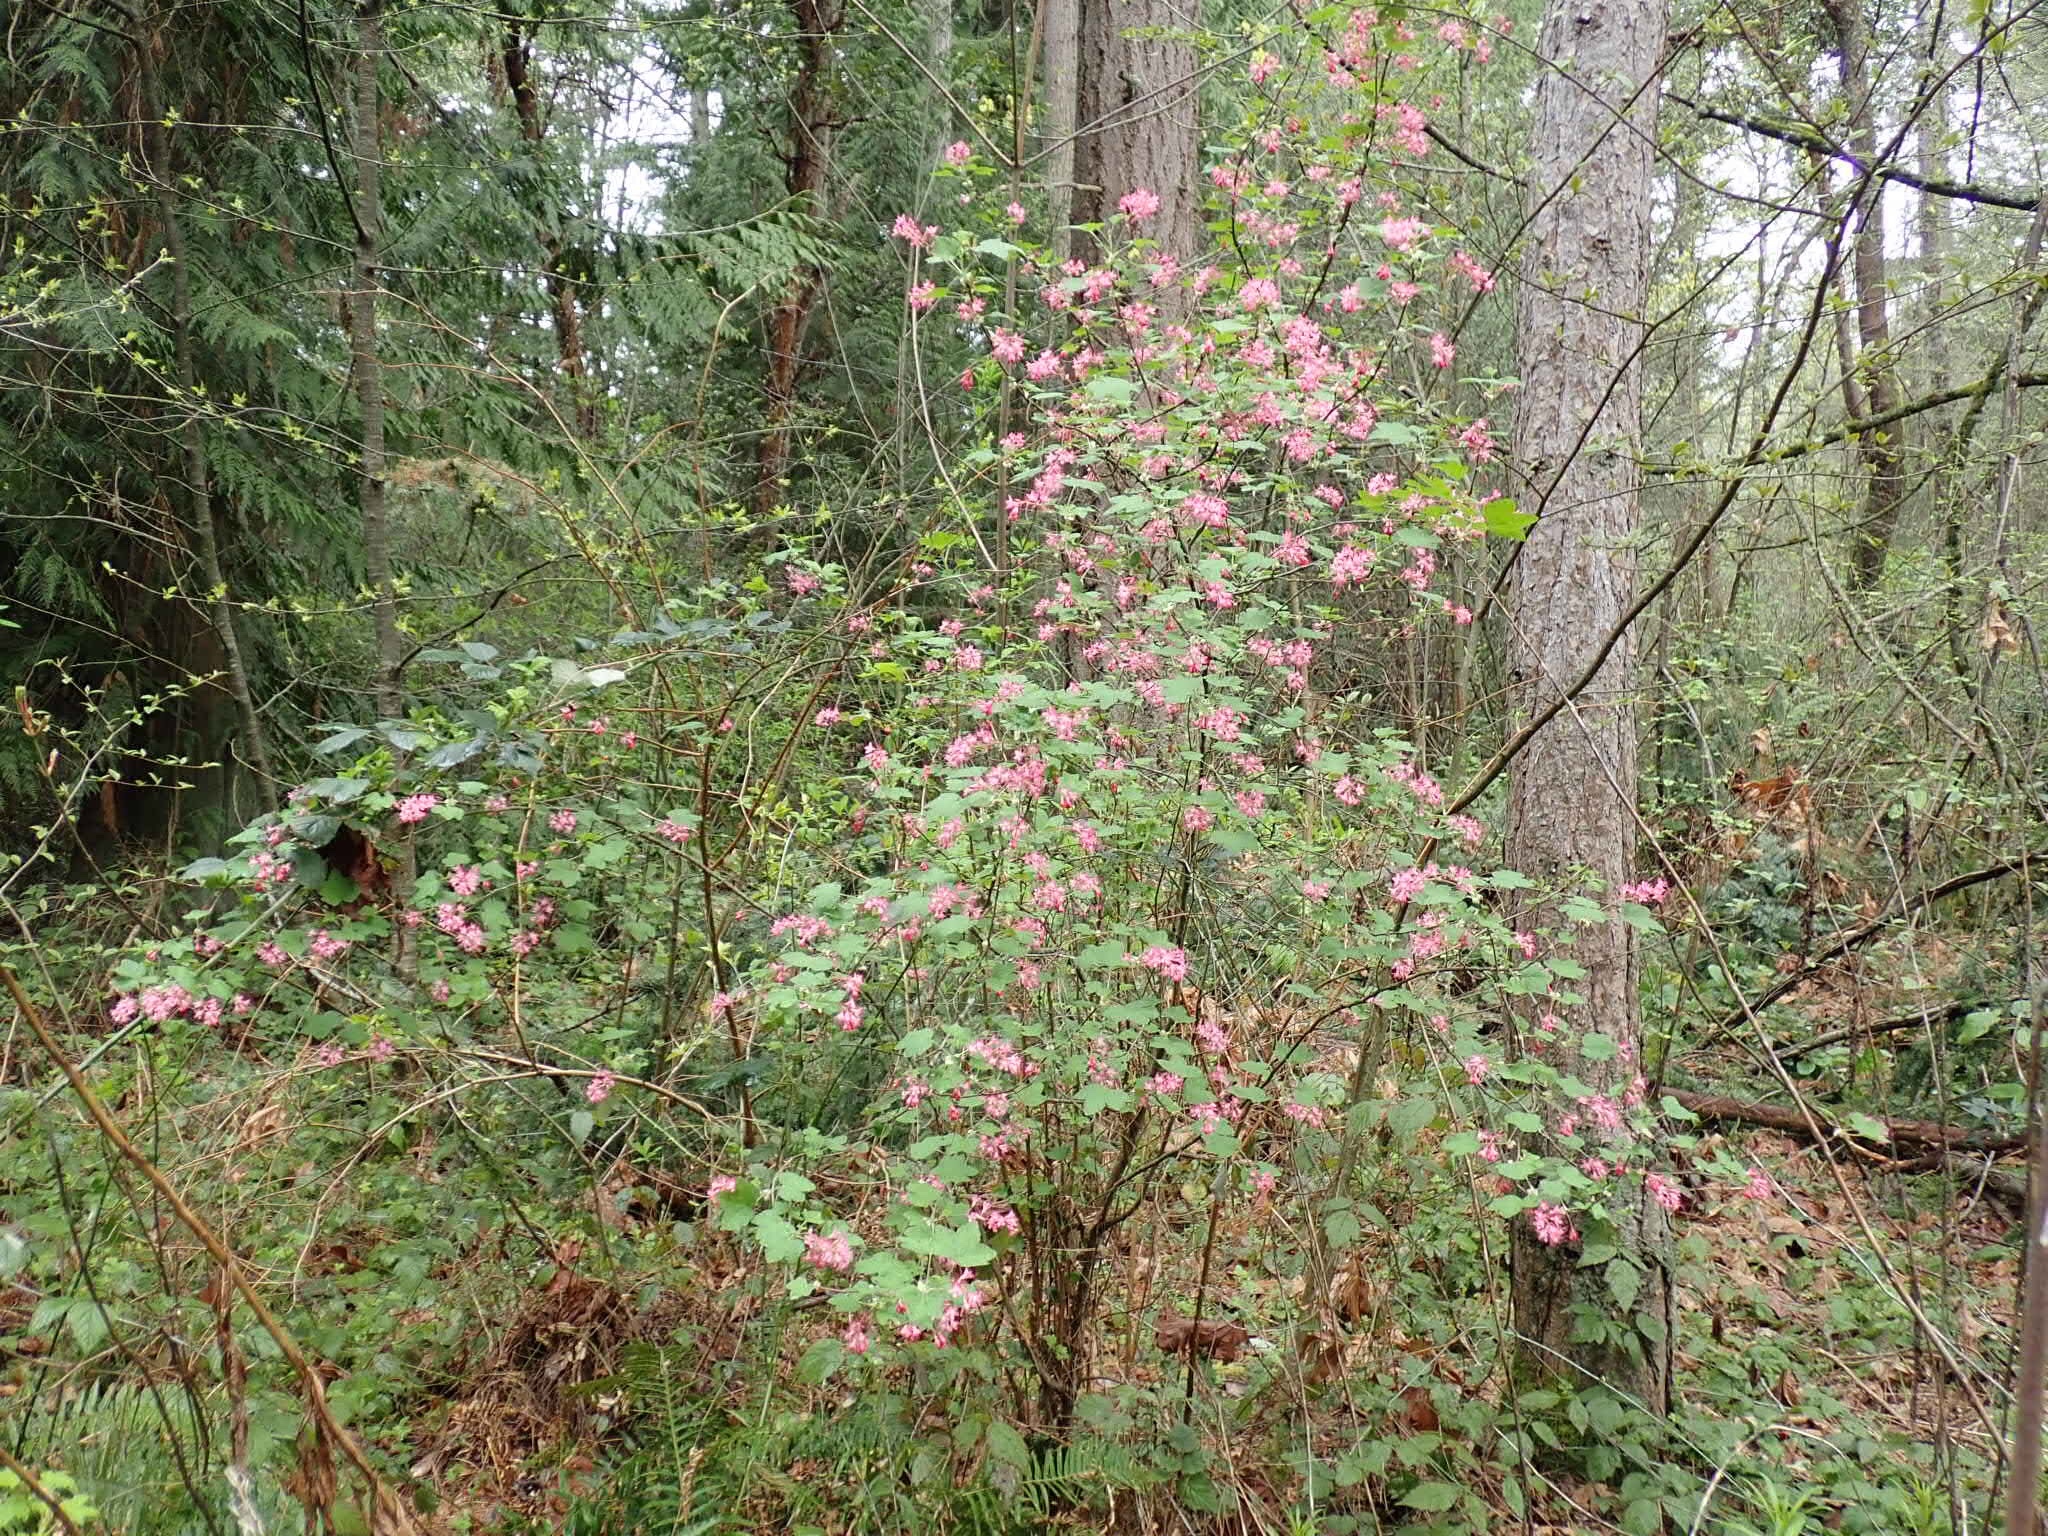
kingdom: Plantae
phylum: Tracheophyta
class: Magnoliopsida
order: Saxifragales
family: Grossulariaceae
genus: Ribes
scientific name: Ribes sanguineum
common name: Flowering currant
